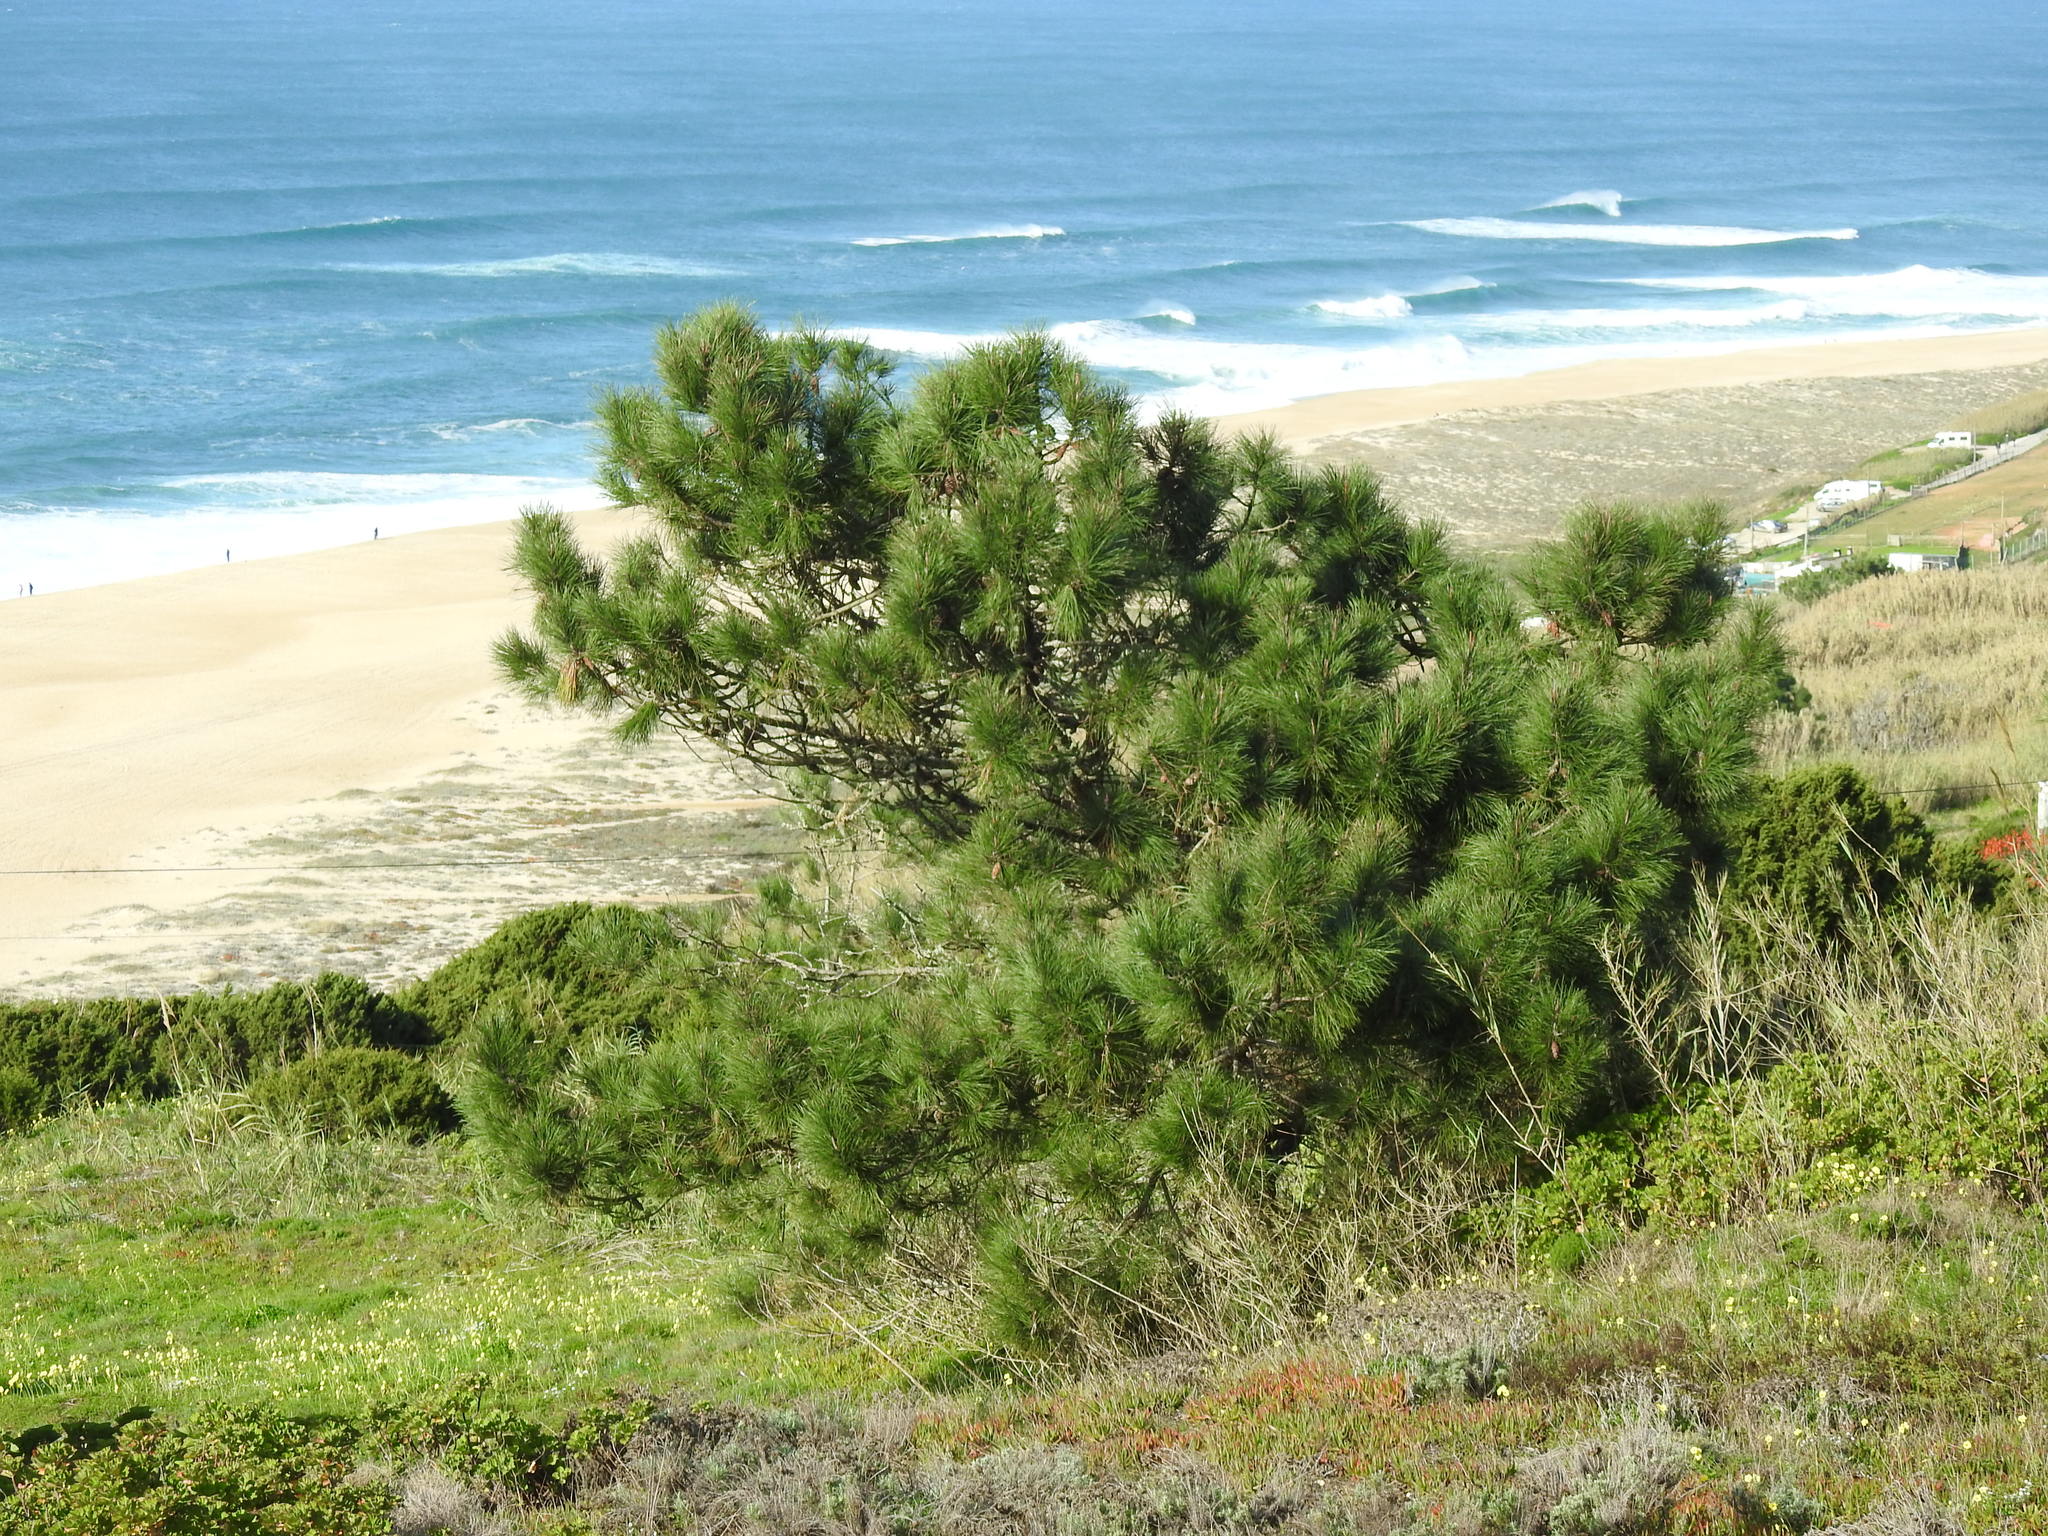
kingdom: Plantae
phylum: Tracheophyta
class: Pinopsida
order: Pinales
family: Pinaceae
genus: Pinus
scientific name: Pinus pinaster
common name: Maritime pine
